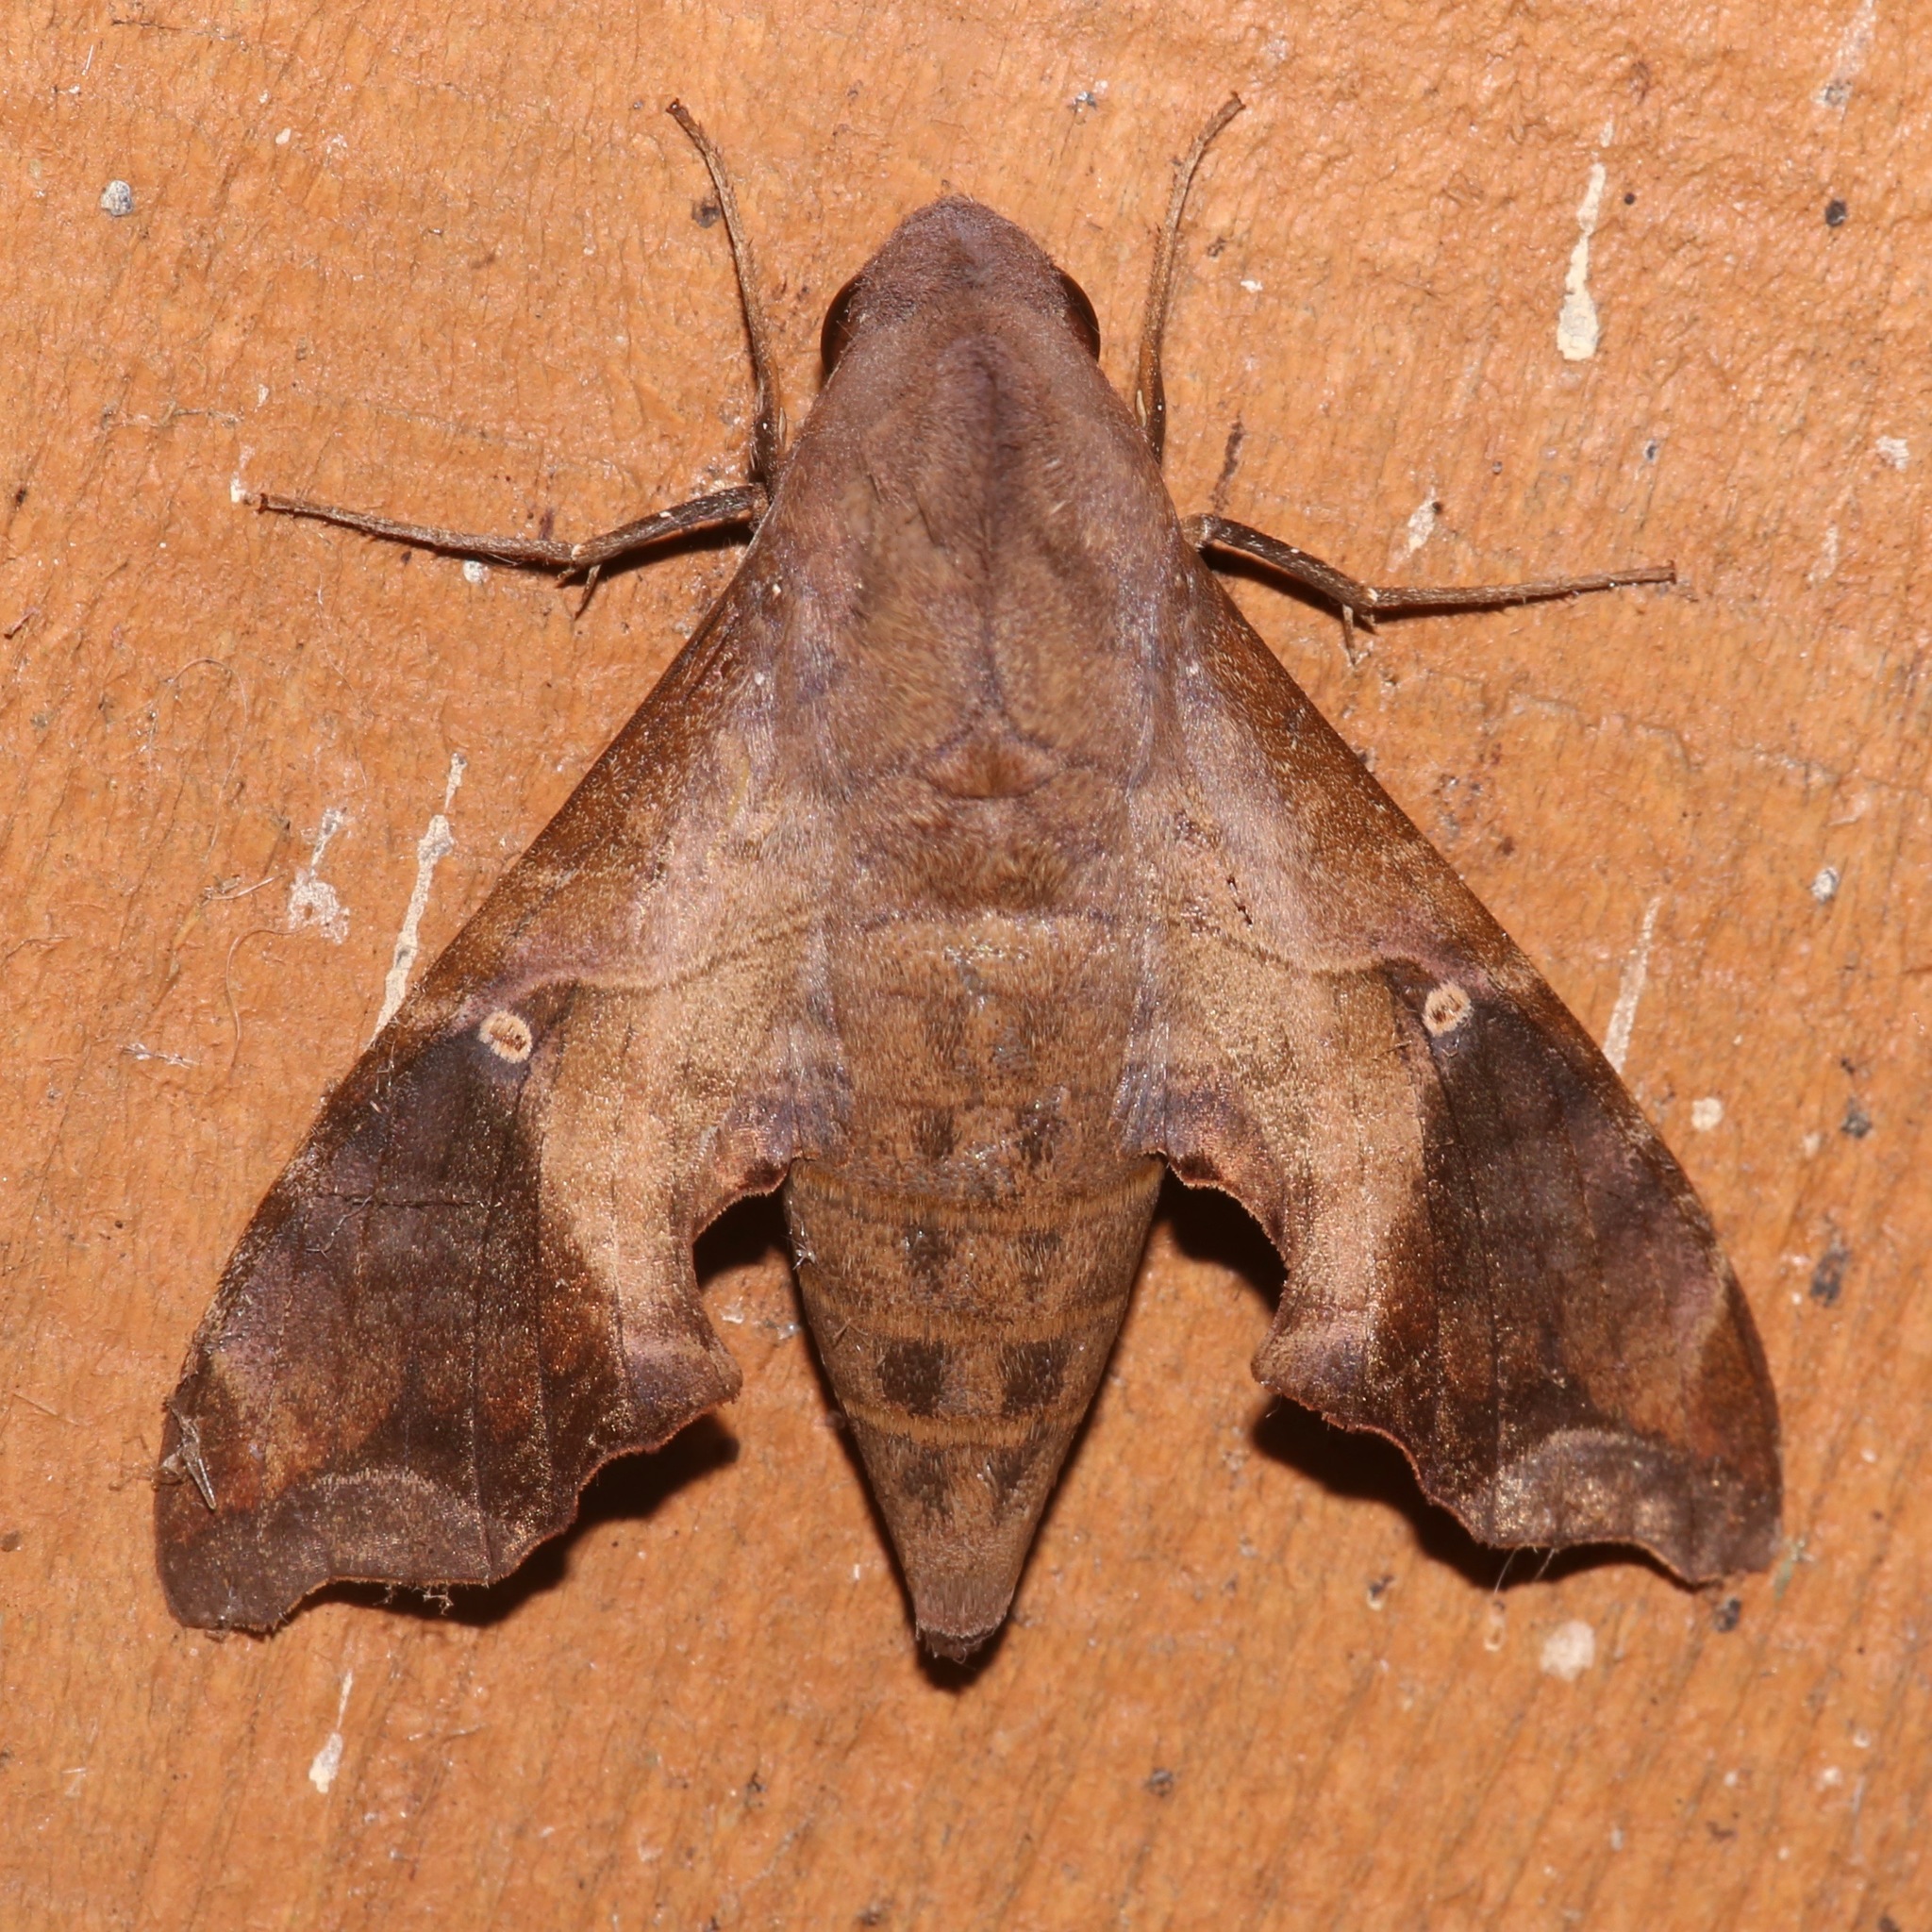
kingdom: Animalia
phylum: Arthropoda
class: Insecta
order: Lepidoptera
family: Sphingidae
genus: Enyo
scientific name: Enyo lugubris
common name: Mournful sphinx
